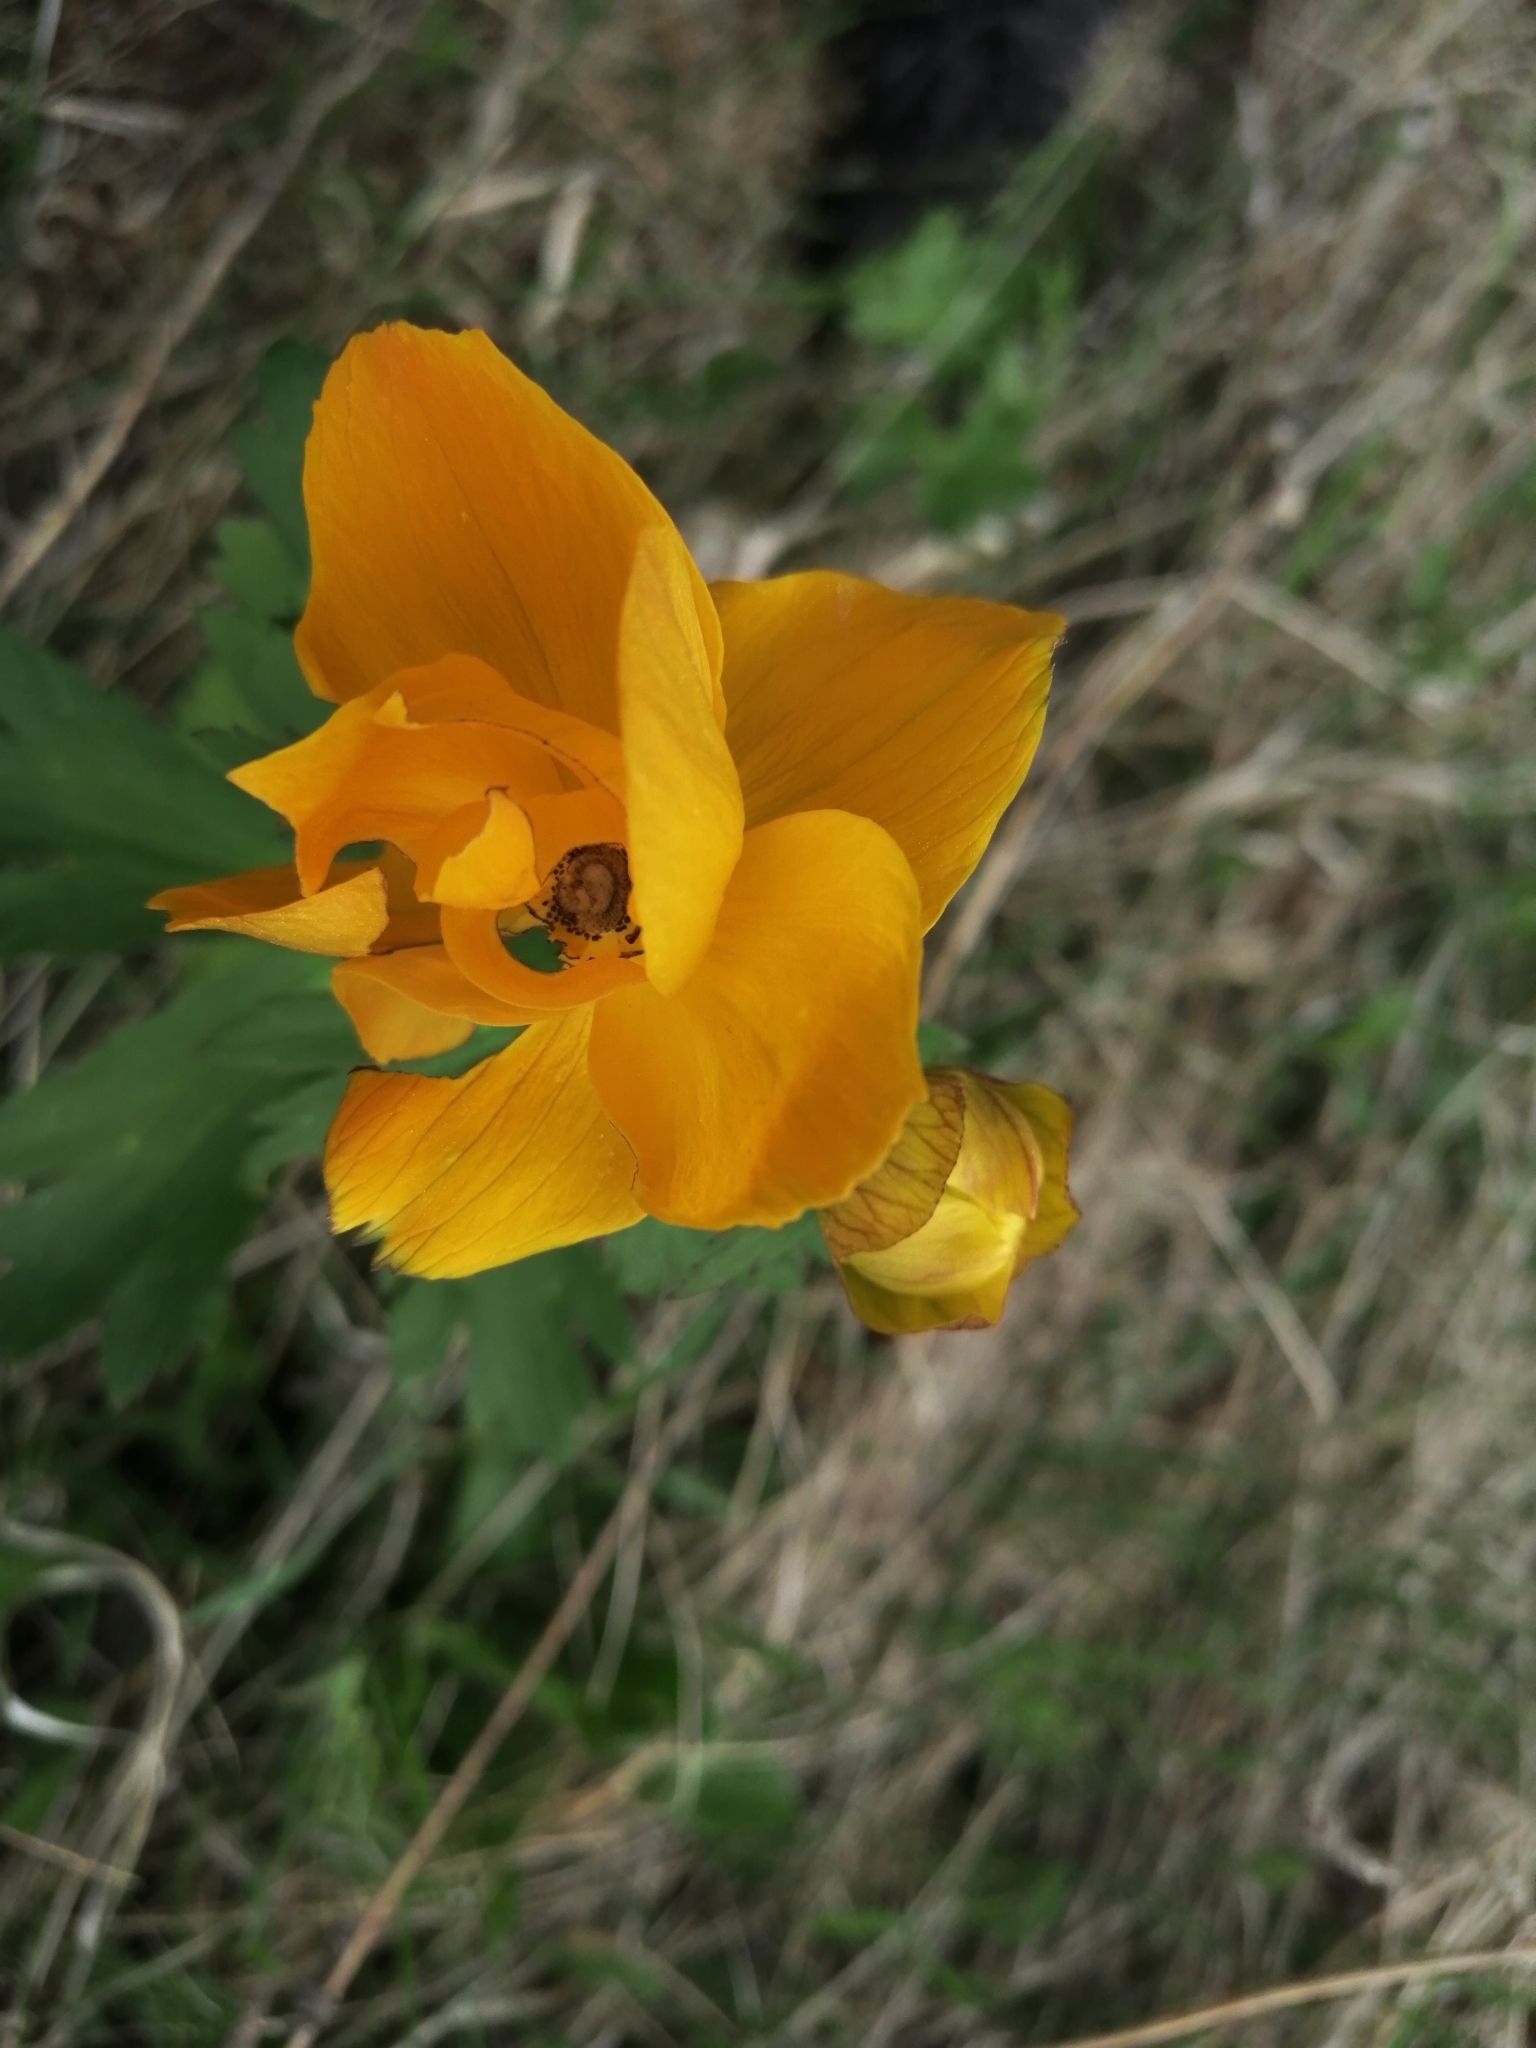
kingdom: Plantae
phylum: Tracheophyta
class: Magnoliopsida
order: Ranunculales
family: Ranunculaceae
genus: Trollius
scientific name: Trollius asiaticus
